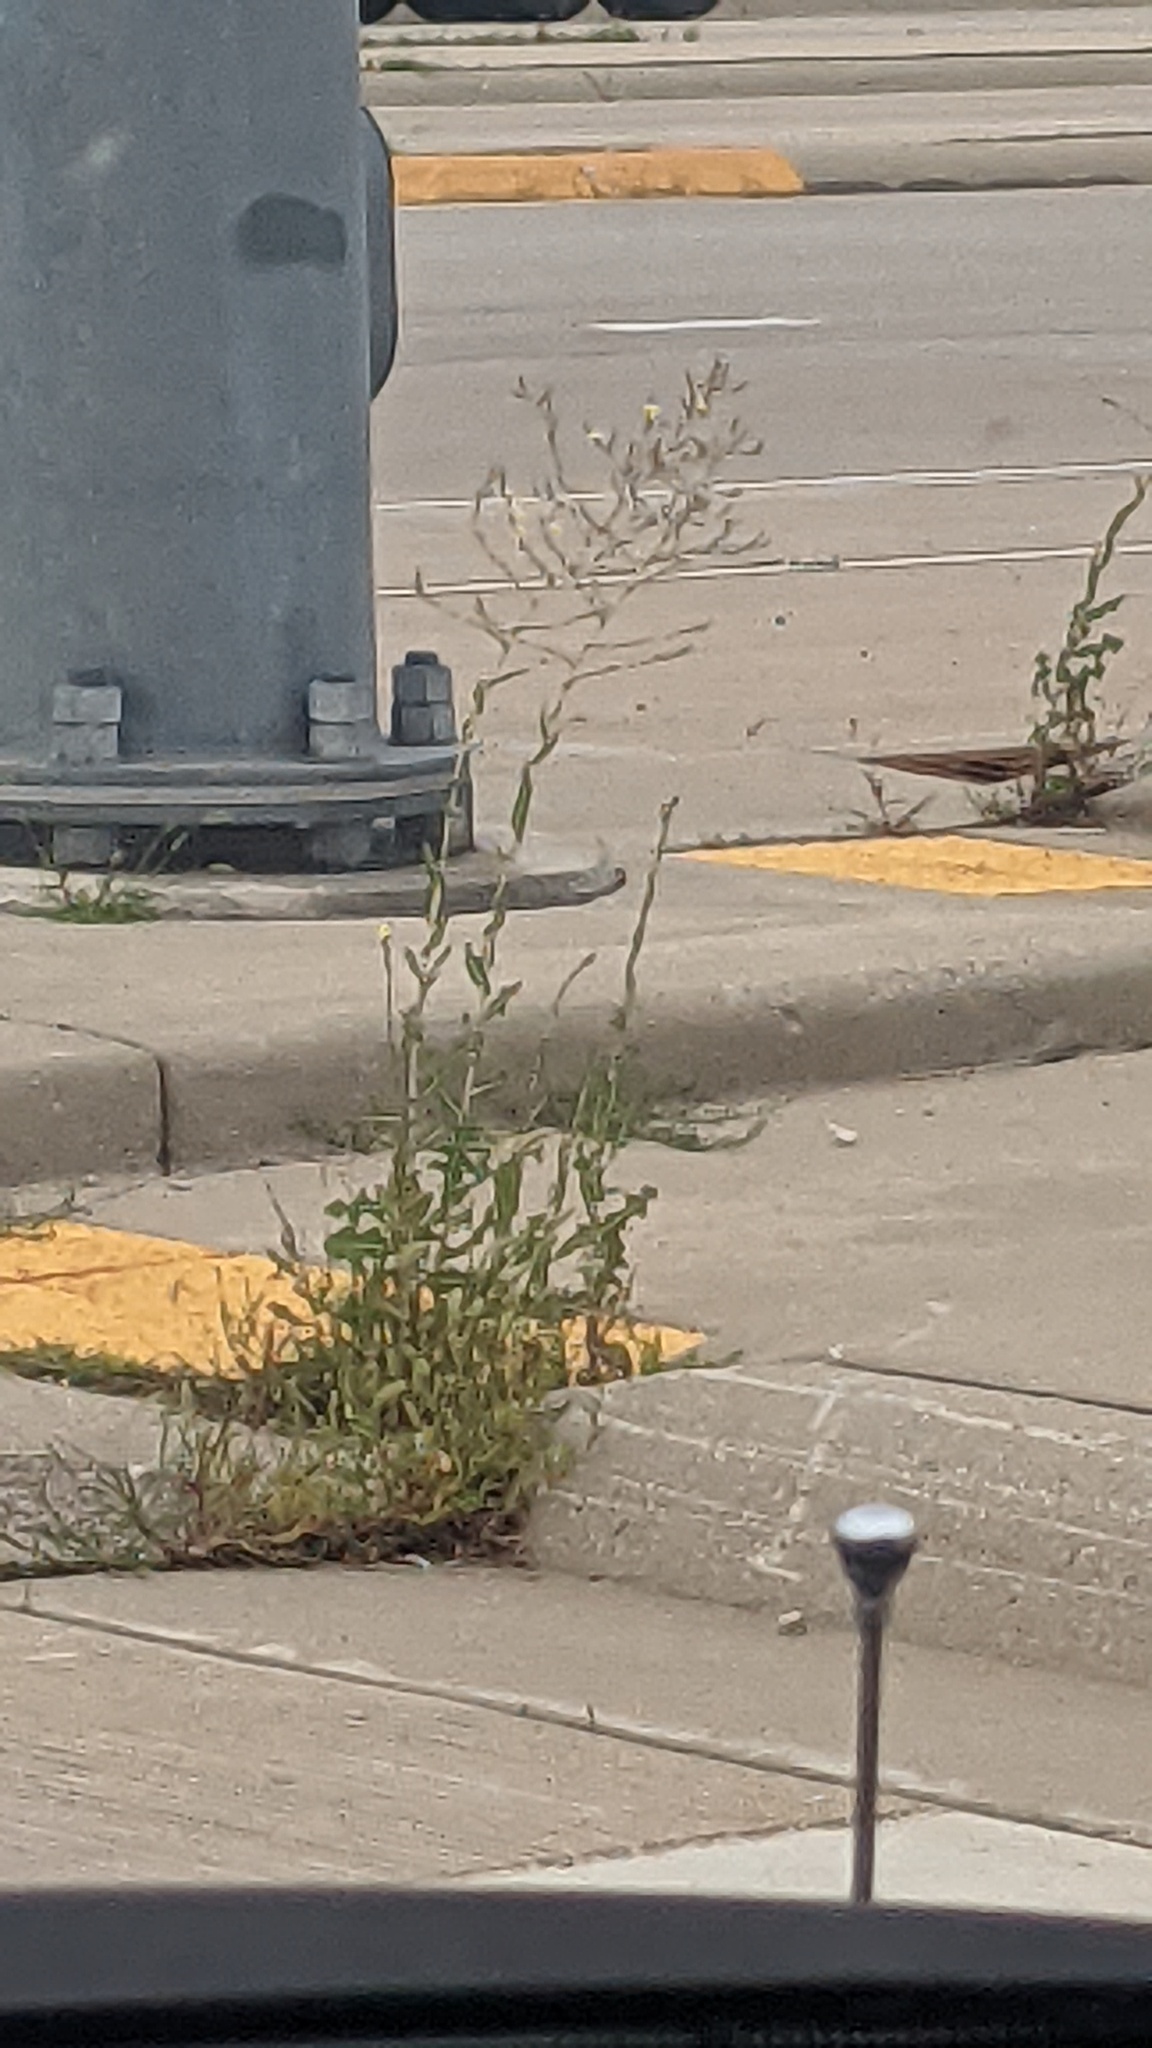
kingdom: Plantae
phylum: Tracheophyta
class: Magnoliopsida
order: Asterales
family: Asteraceae
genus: Lactuca
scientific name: Lactuca serriola
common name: Prickly lettuce
